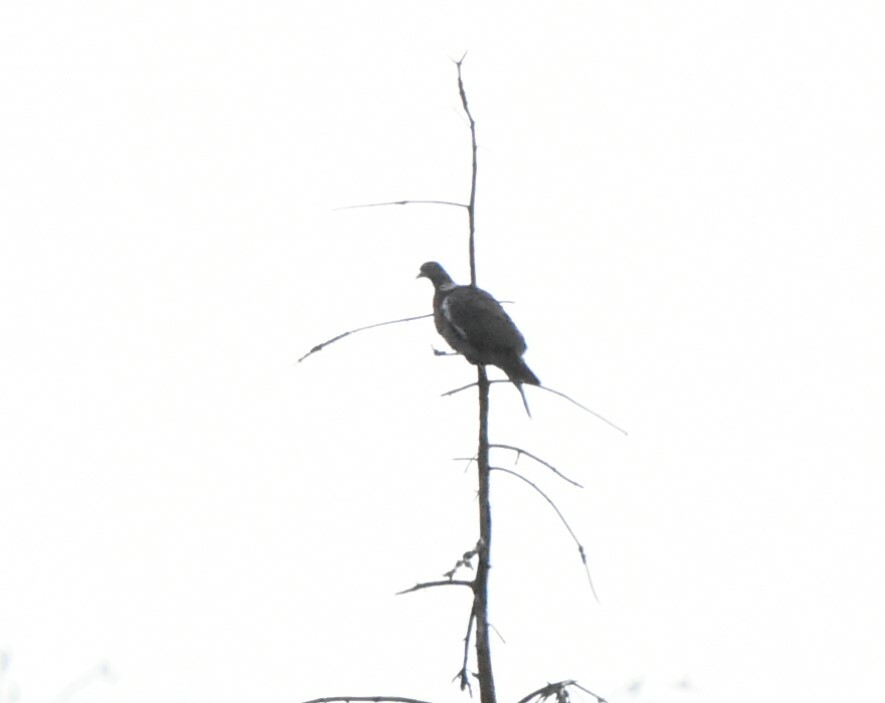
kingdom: Animalia
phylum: Chordata
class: Aves
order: Columbiformes
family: Columbidae
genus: Columba
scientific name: Columba palumbus
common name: Common wood pigeon
